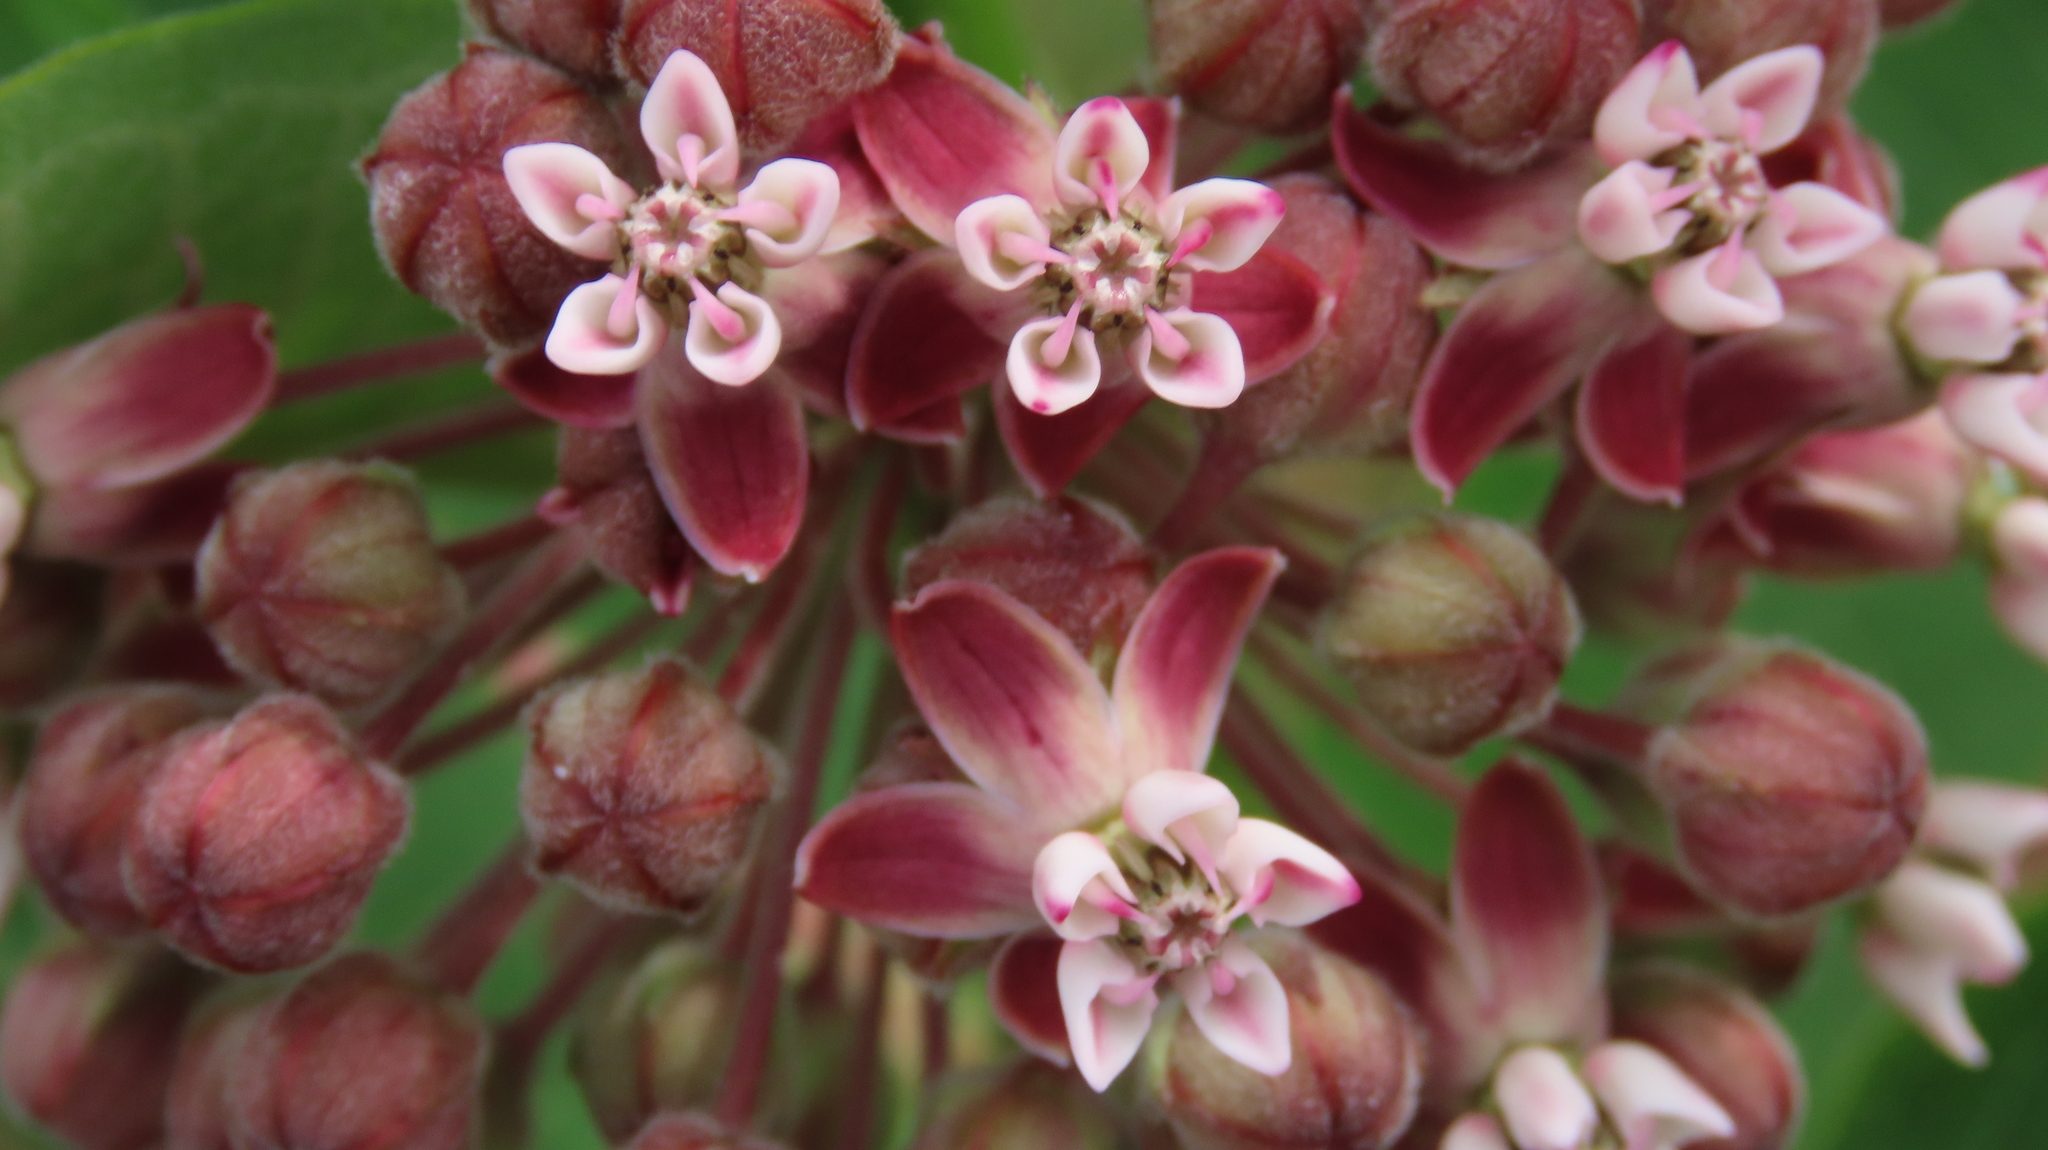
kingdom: Plantae
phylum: Tracheophyta
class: Magnoliopsida
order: Gentianales
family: Apocynaceae
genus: Asclepias
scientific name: Asclepias syriaca
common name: Common milkweed
